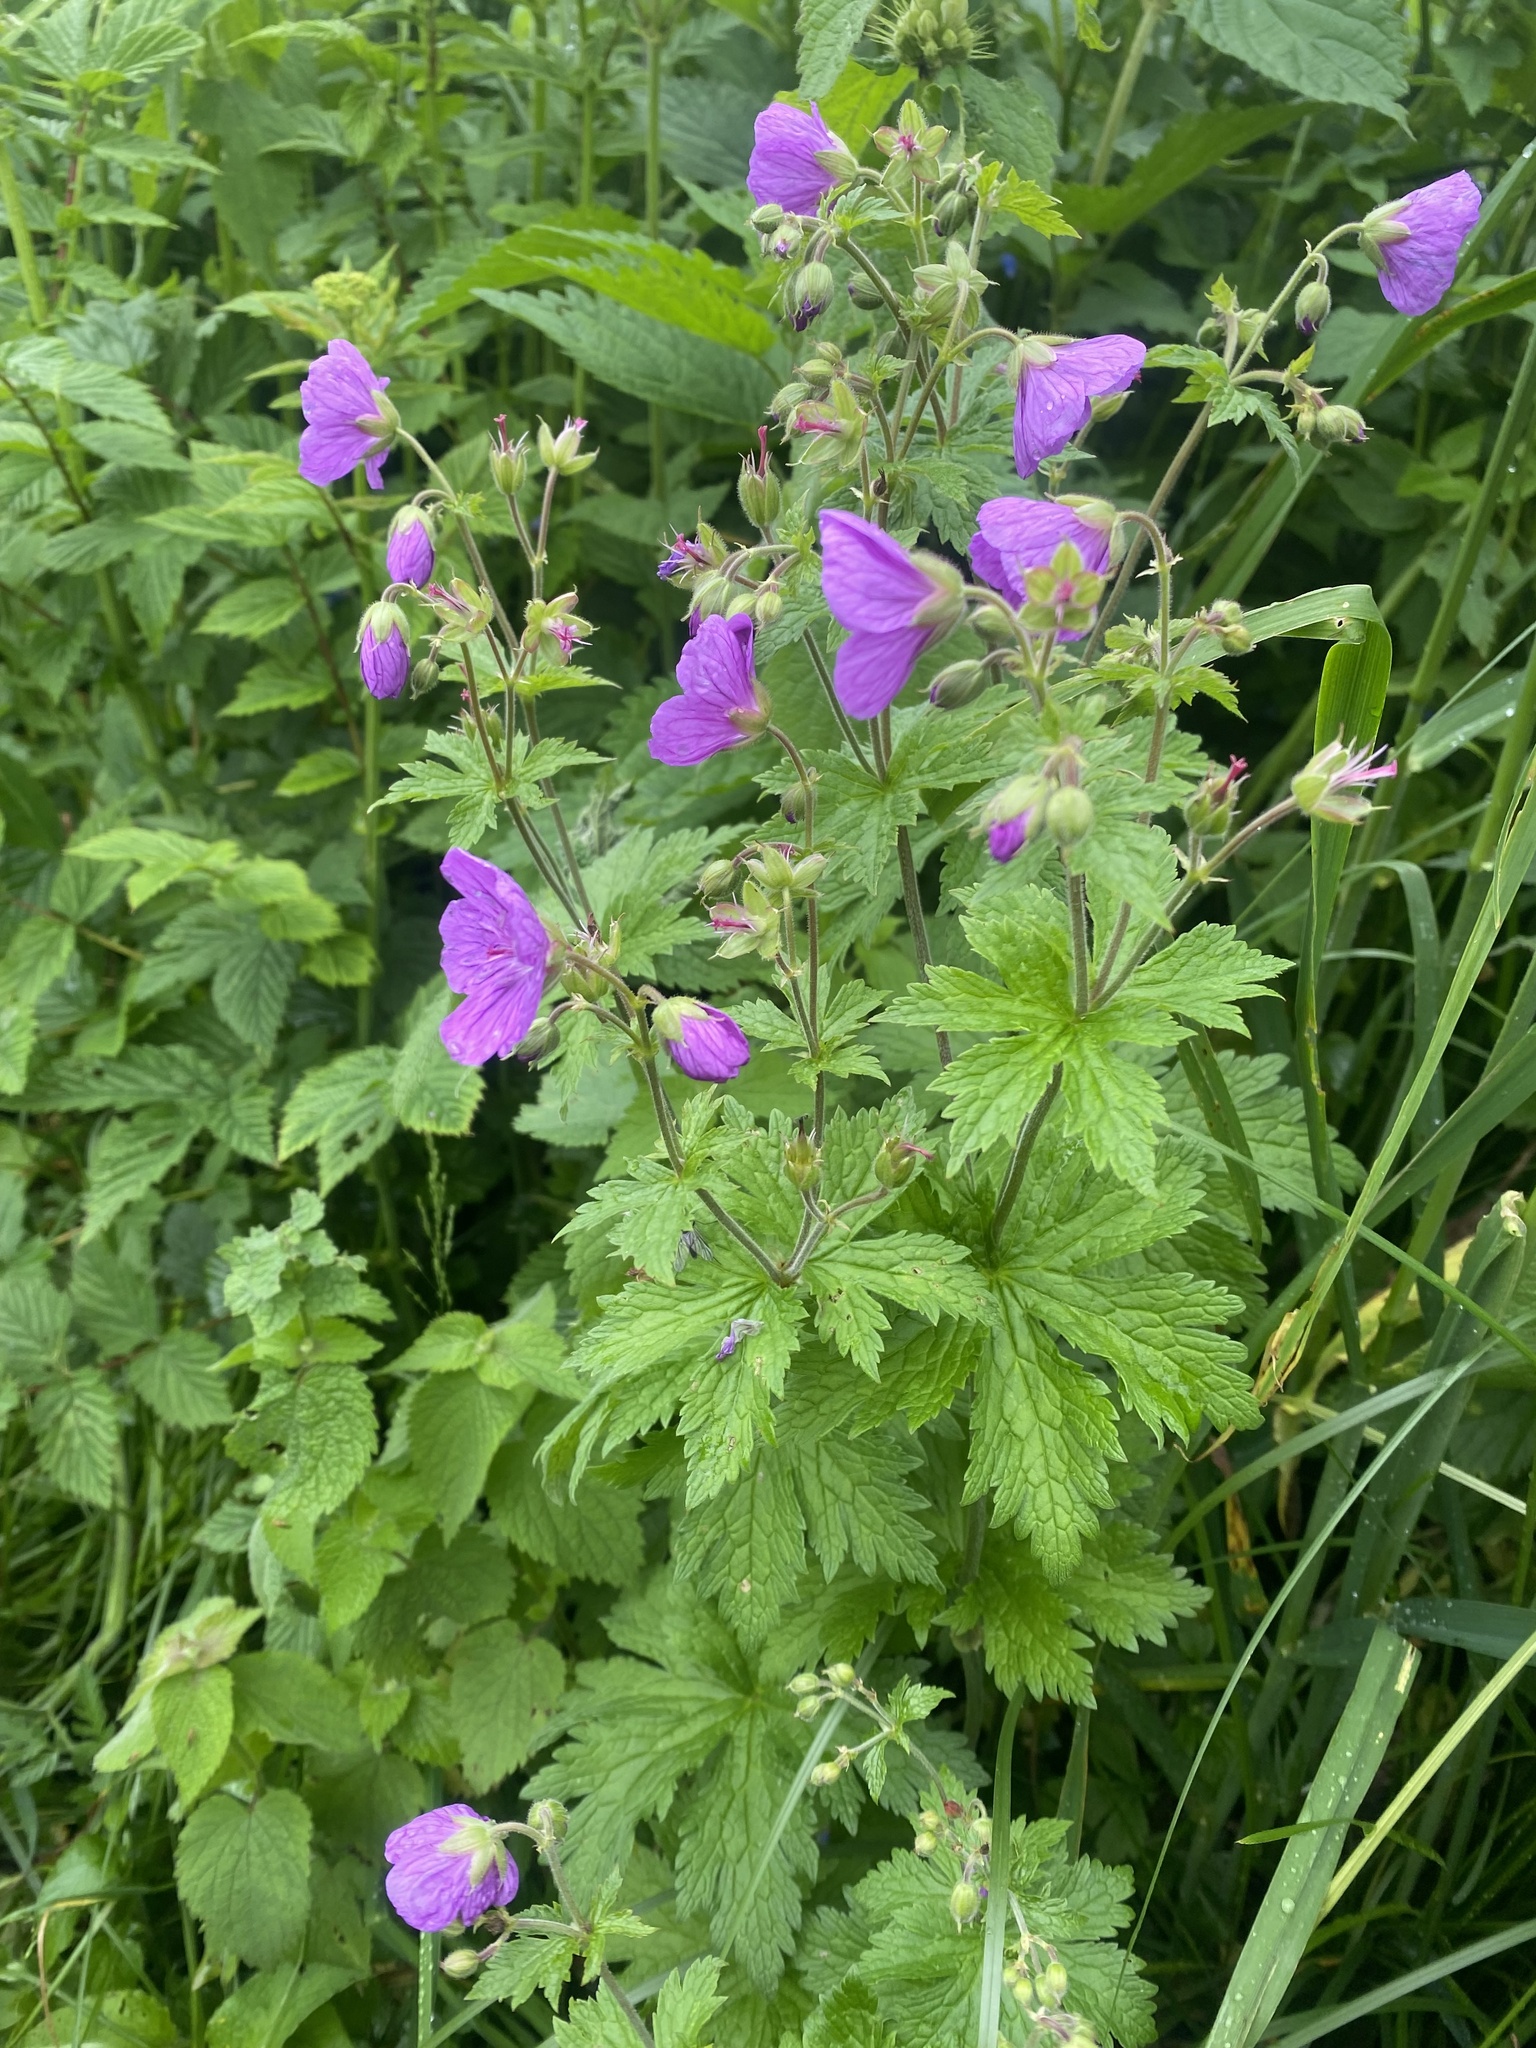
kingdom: Plantae
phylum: Tracheophyta
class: Magnoliopsida
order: Geraniales
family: Geraniaceae
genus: Geranium
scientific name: Geranium sylvaticum
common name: Wood crane's-bill
